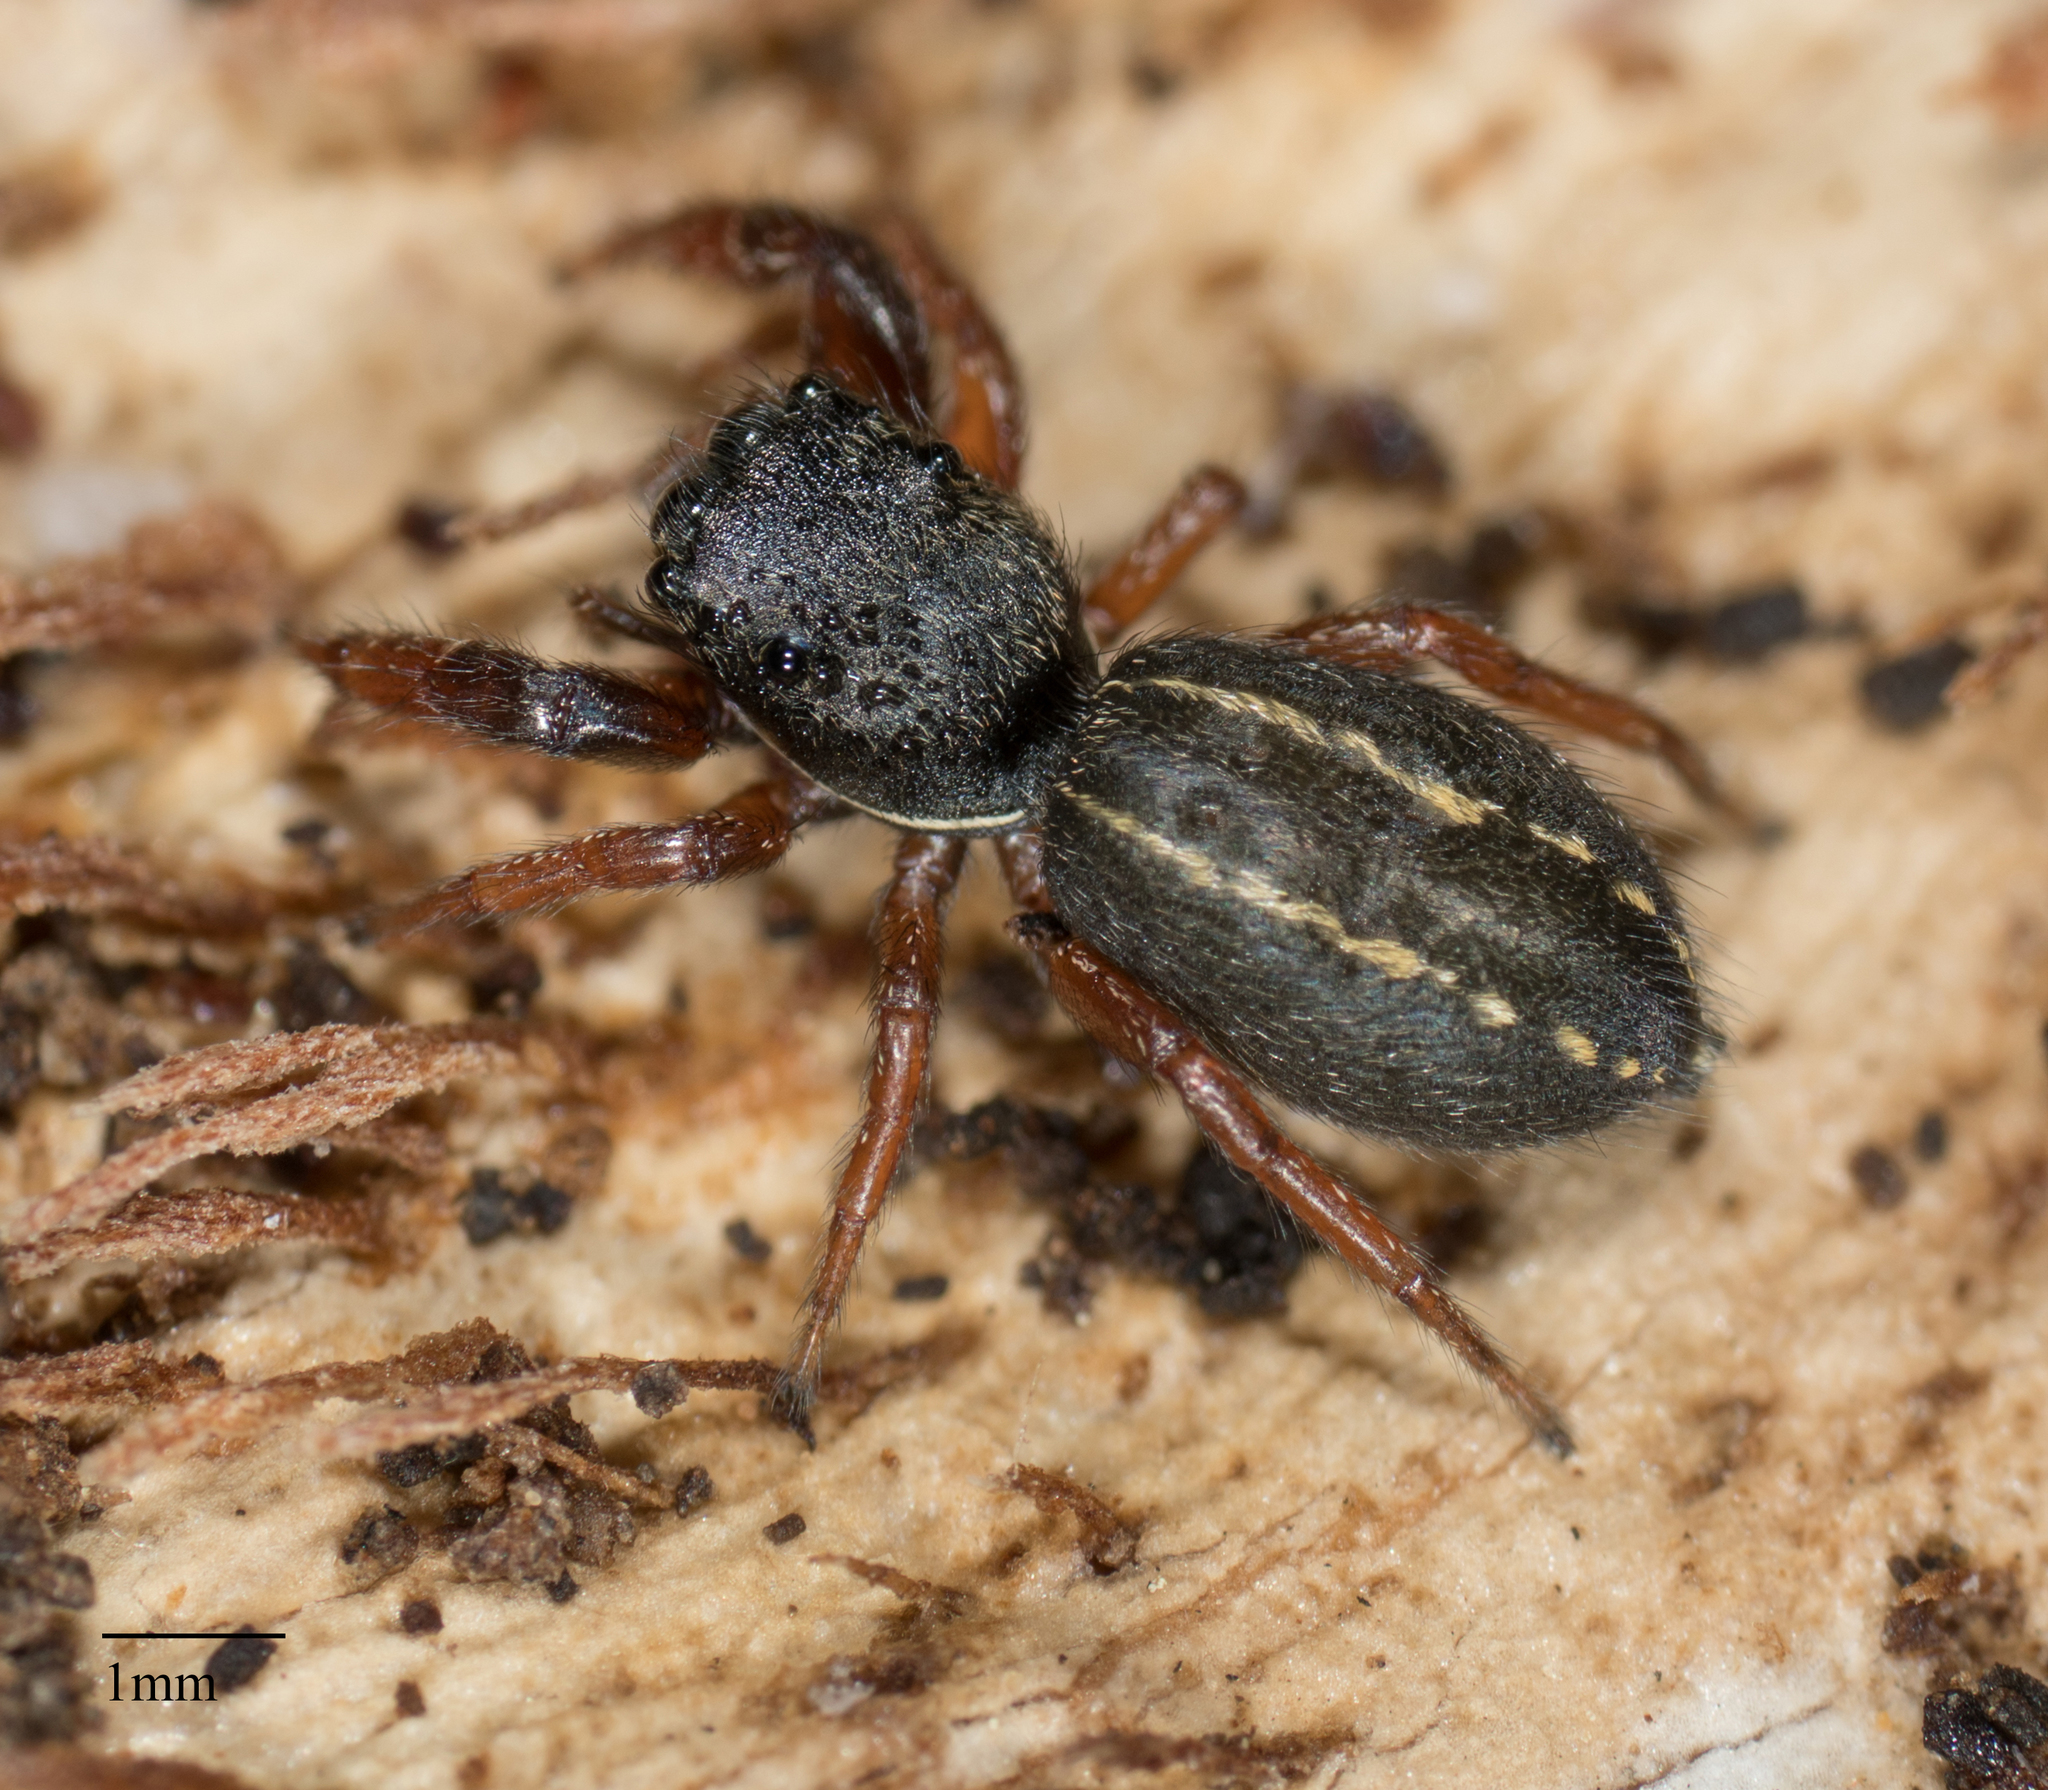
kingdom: Animalia
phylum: Arthropoda
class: Arachnida
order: Araneae
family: Salticidae
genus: Metacyrba
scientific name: Metacyrba taeniola
